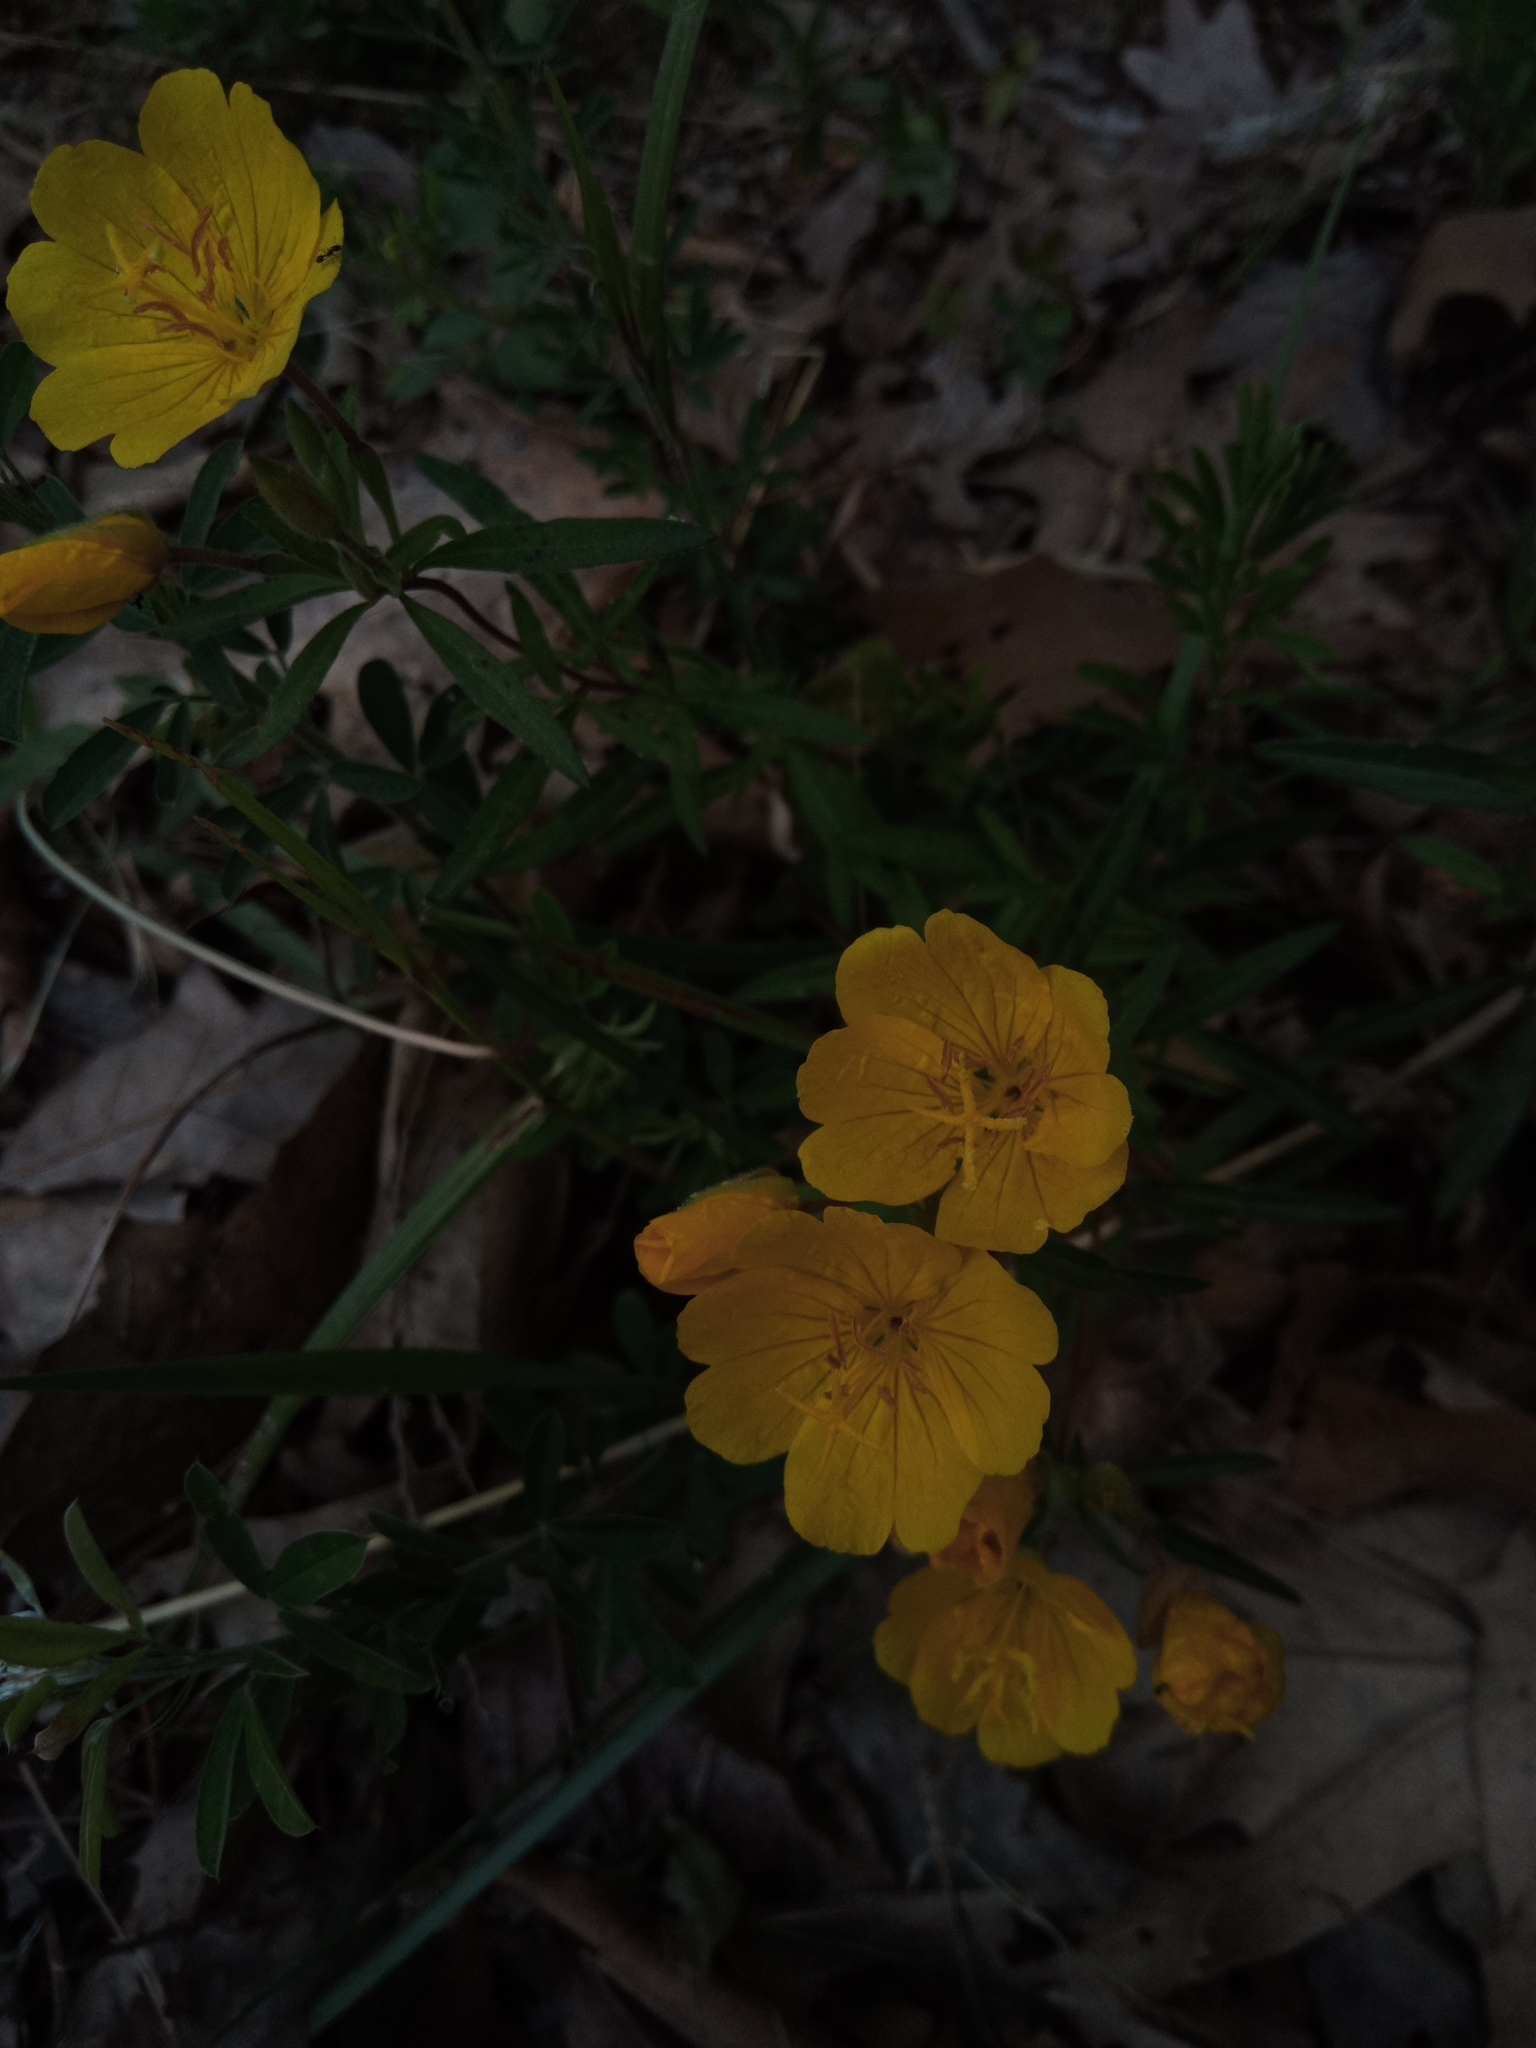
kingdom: Plantae
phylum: Tracheophyta
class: Magnoliopsida
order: Myrtales
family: Onagraceae
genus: Oenothera
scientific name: Oenothera fruticosa
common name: Southern sundrops
